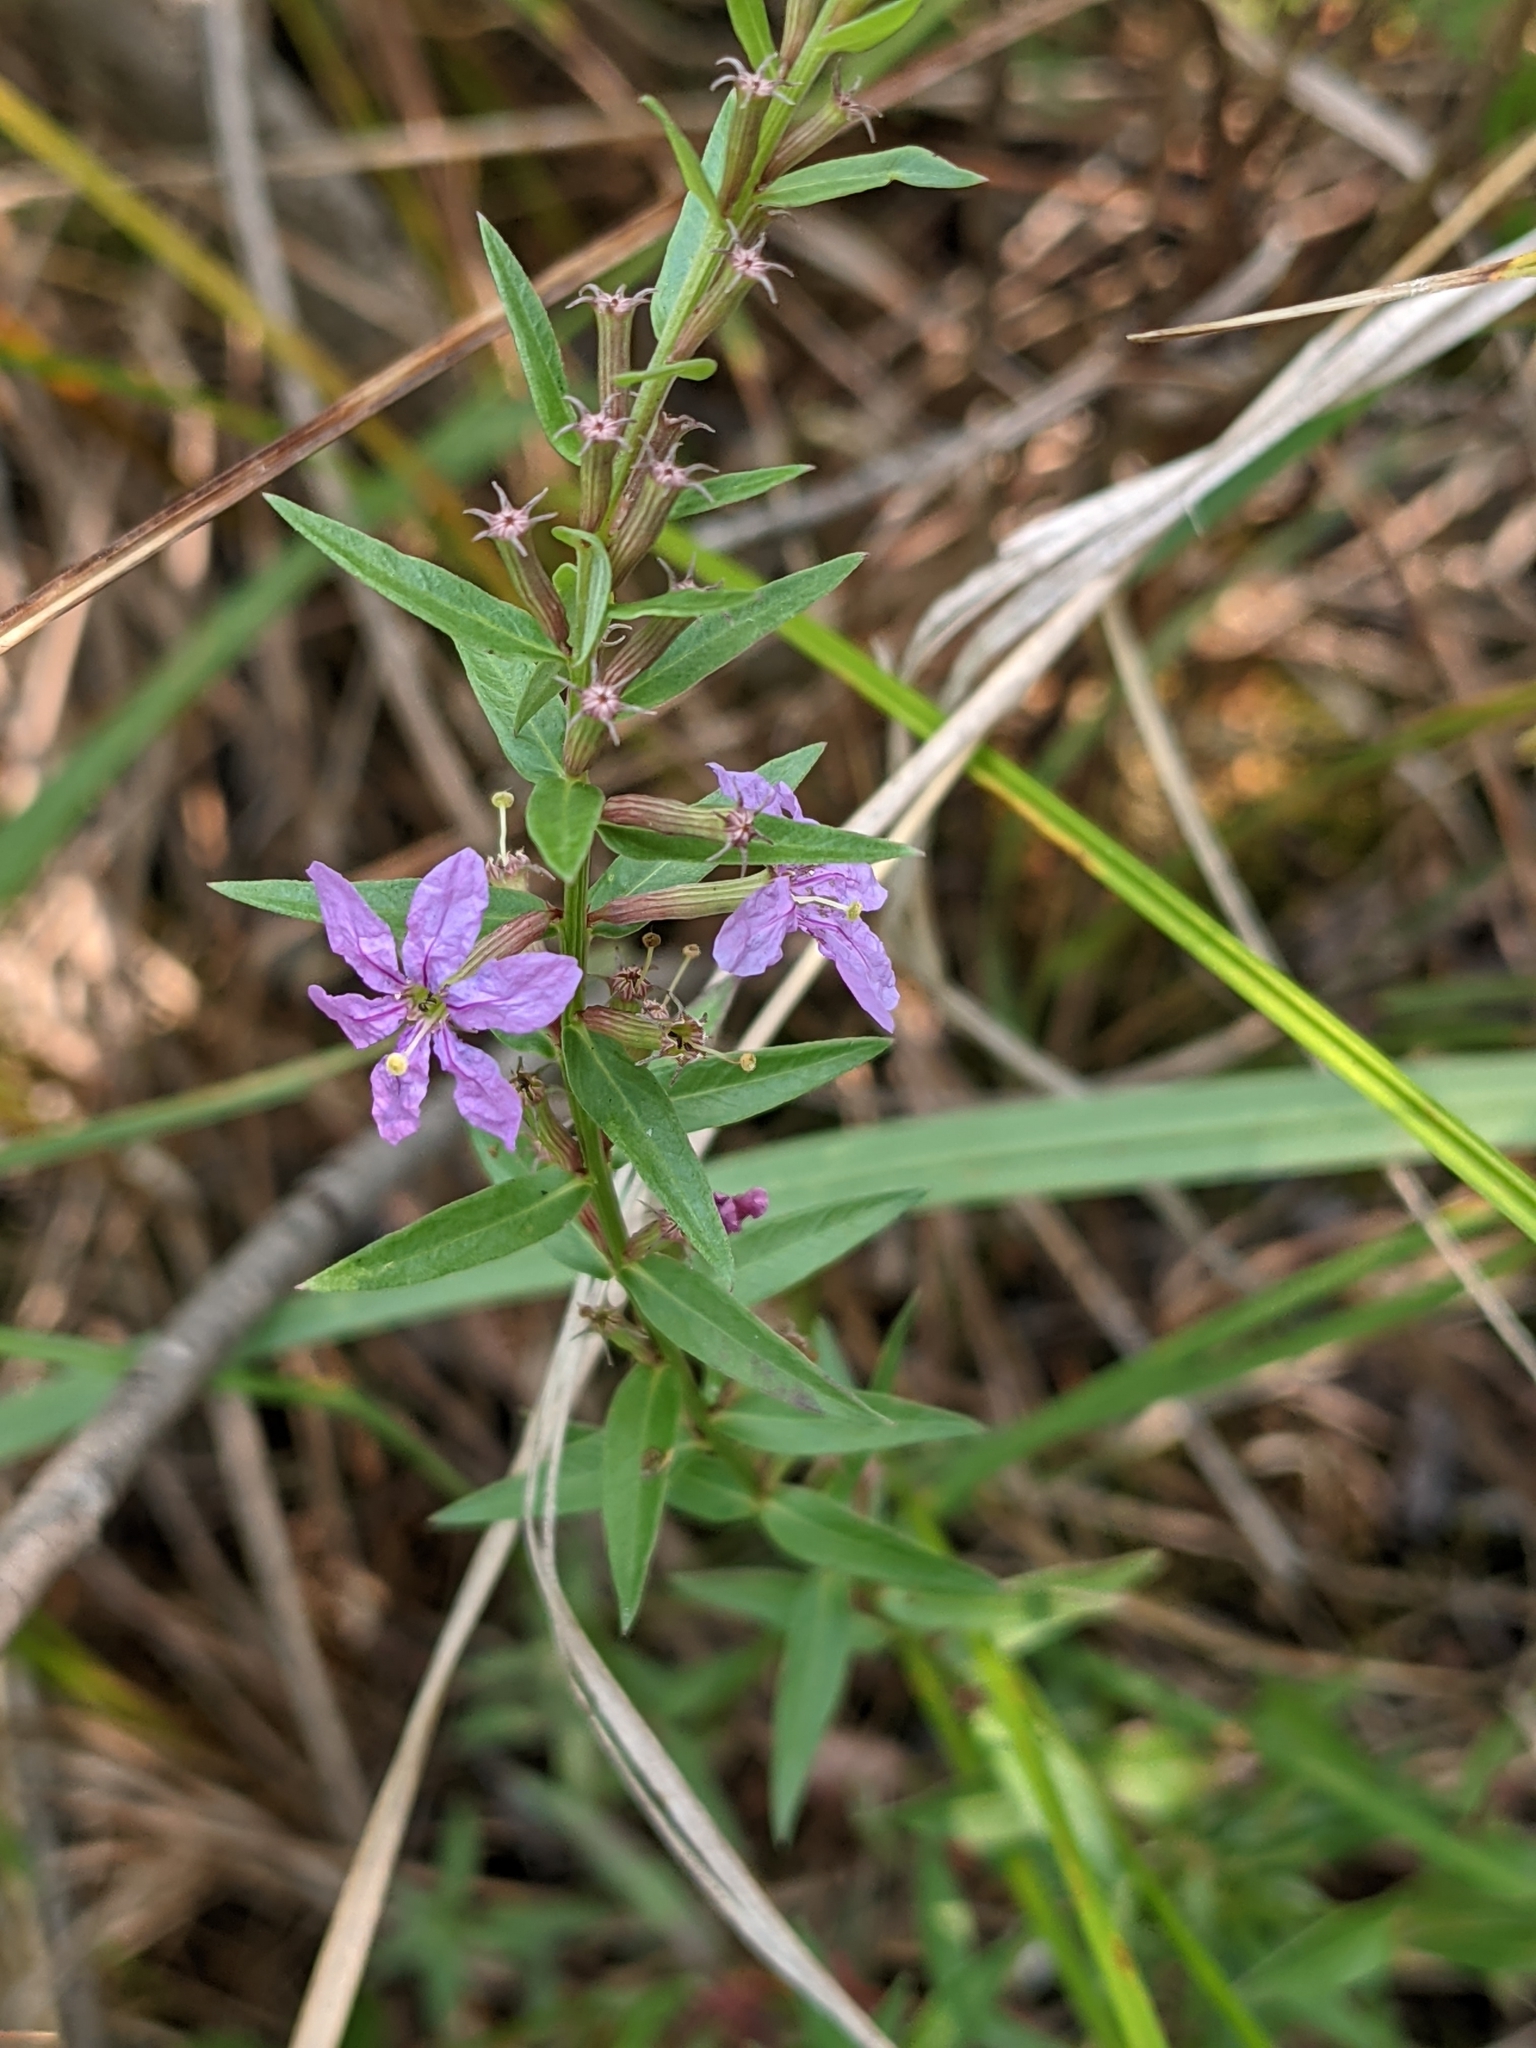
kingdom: Plantae
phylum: Tracheophyta
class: Magnoliopsida
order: Myrtales
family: Lythraceae
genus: Lythrum
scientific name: Lythrum alatum
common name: Winged loosestrife
